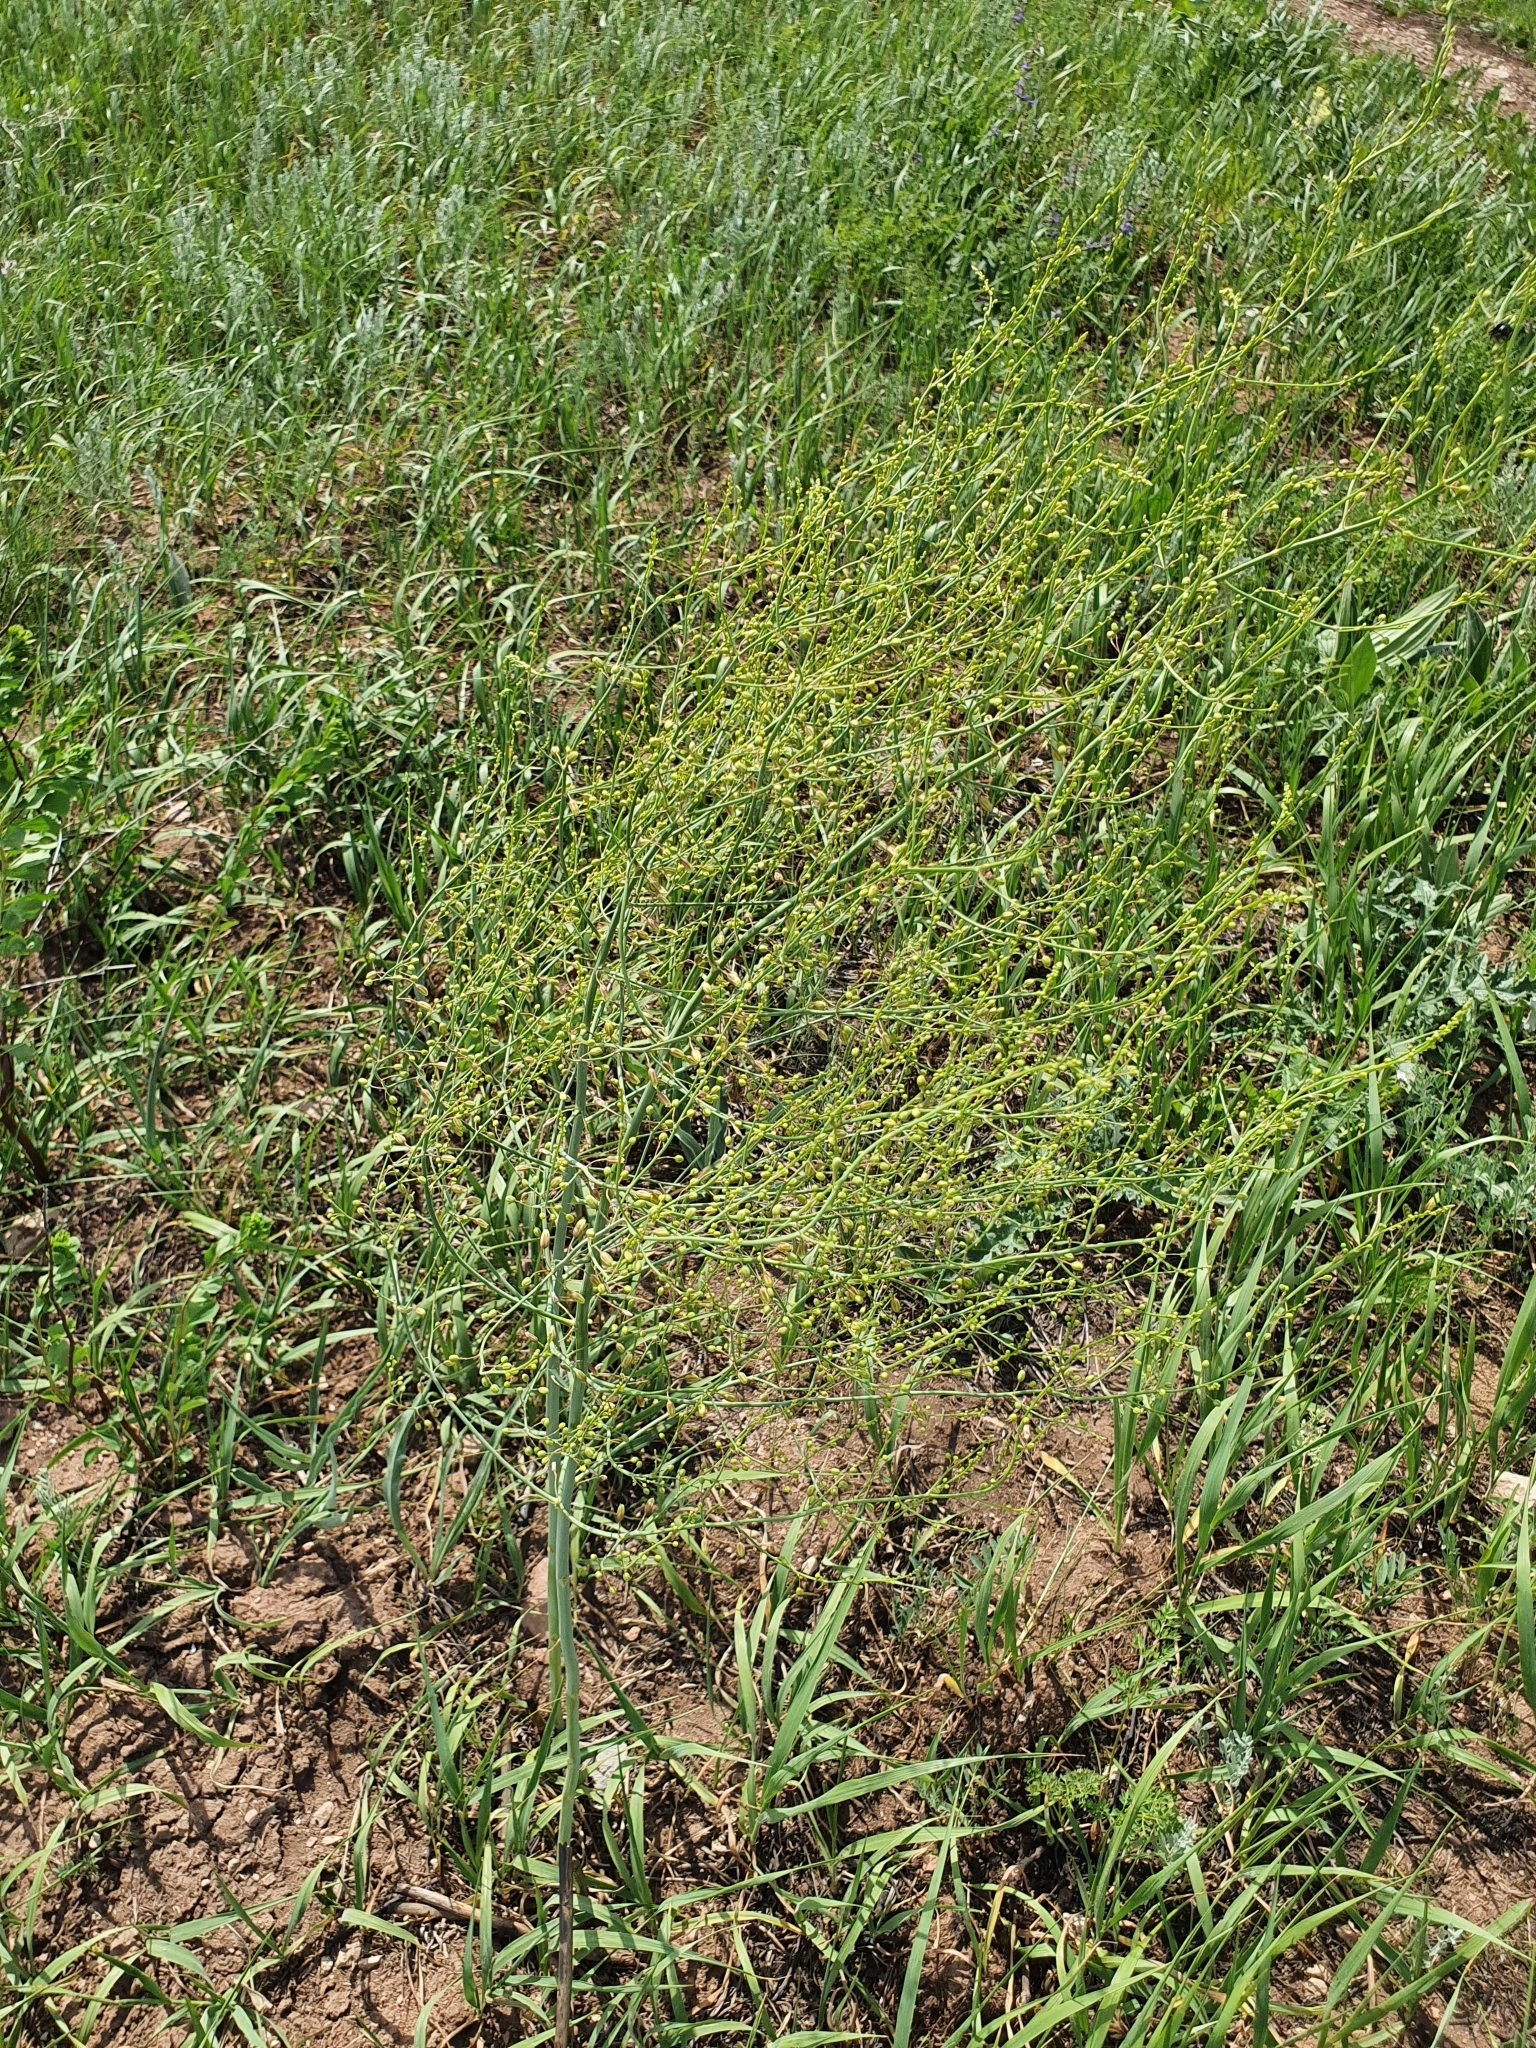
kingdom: Plantae
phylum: Tracheophyta
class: Liliopsida
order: Asparagales
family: Asparagaceae
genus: Asparagus
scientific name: Asparagus officinalis
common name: Garden asparagus
